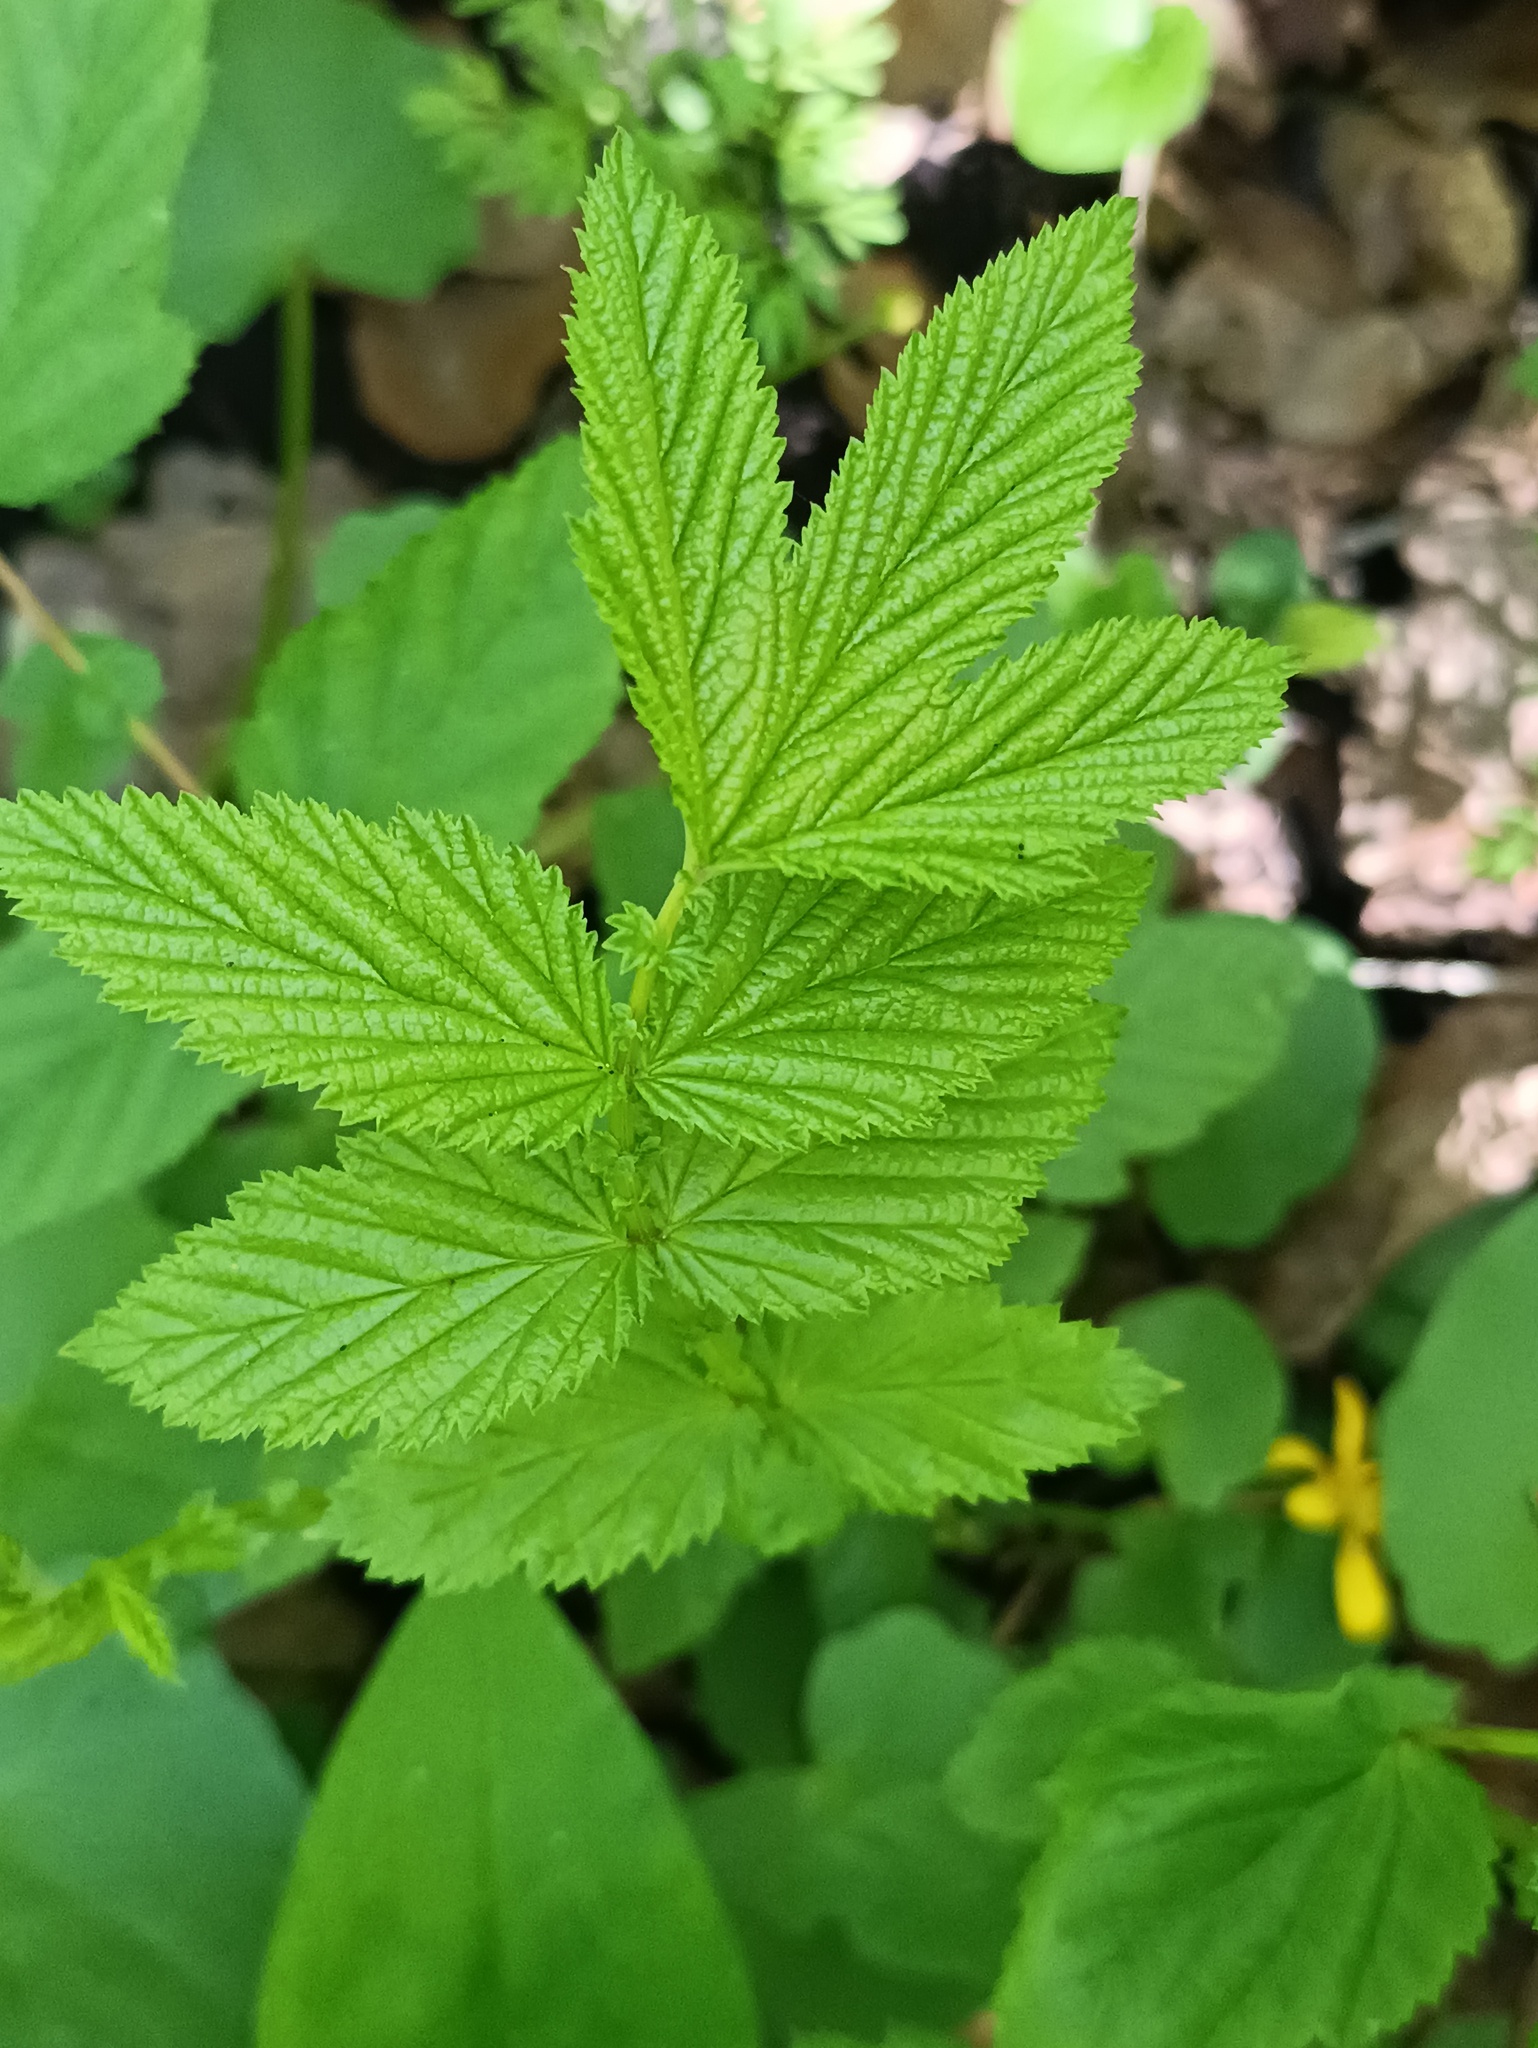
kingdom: Plantae
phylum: Tracheophyta
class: Magnoliopsida
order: Rosales
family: Rosaceae
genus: Filipendula
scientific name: Filipendula ulmaria
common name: Meadowsweet
